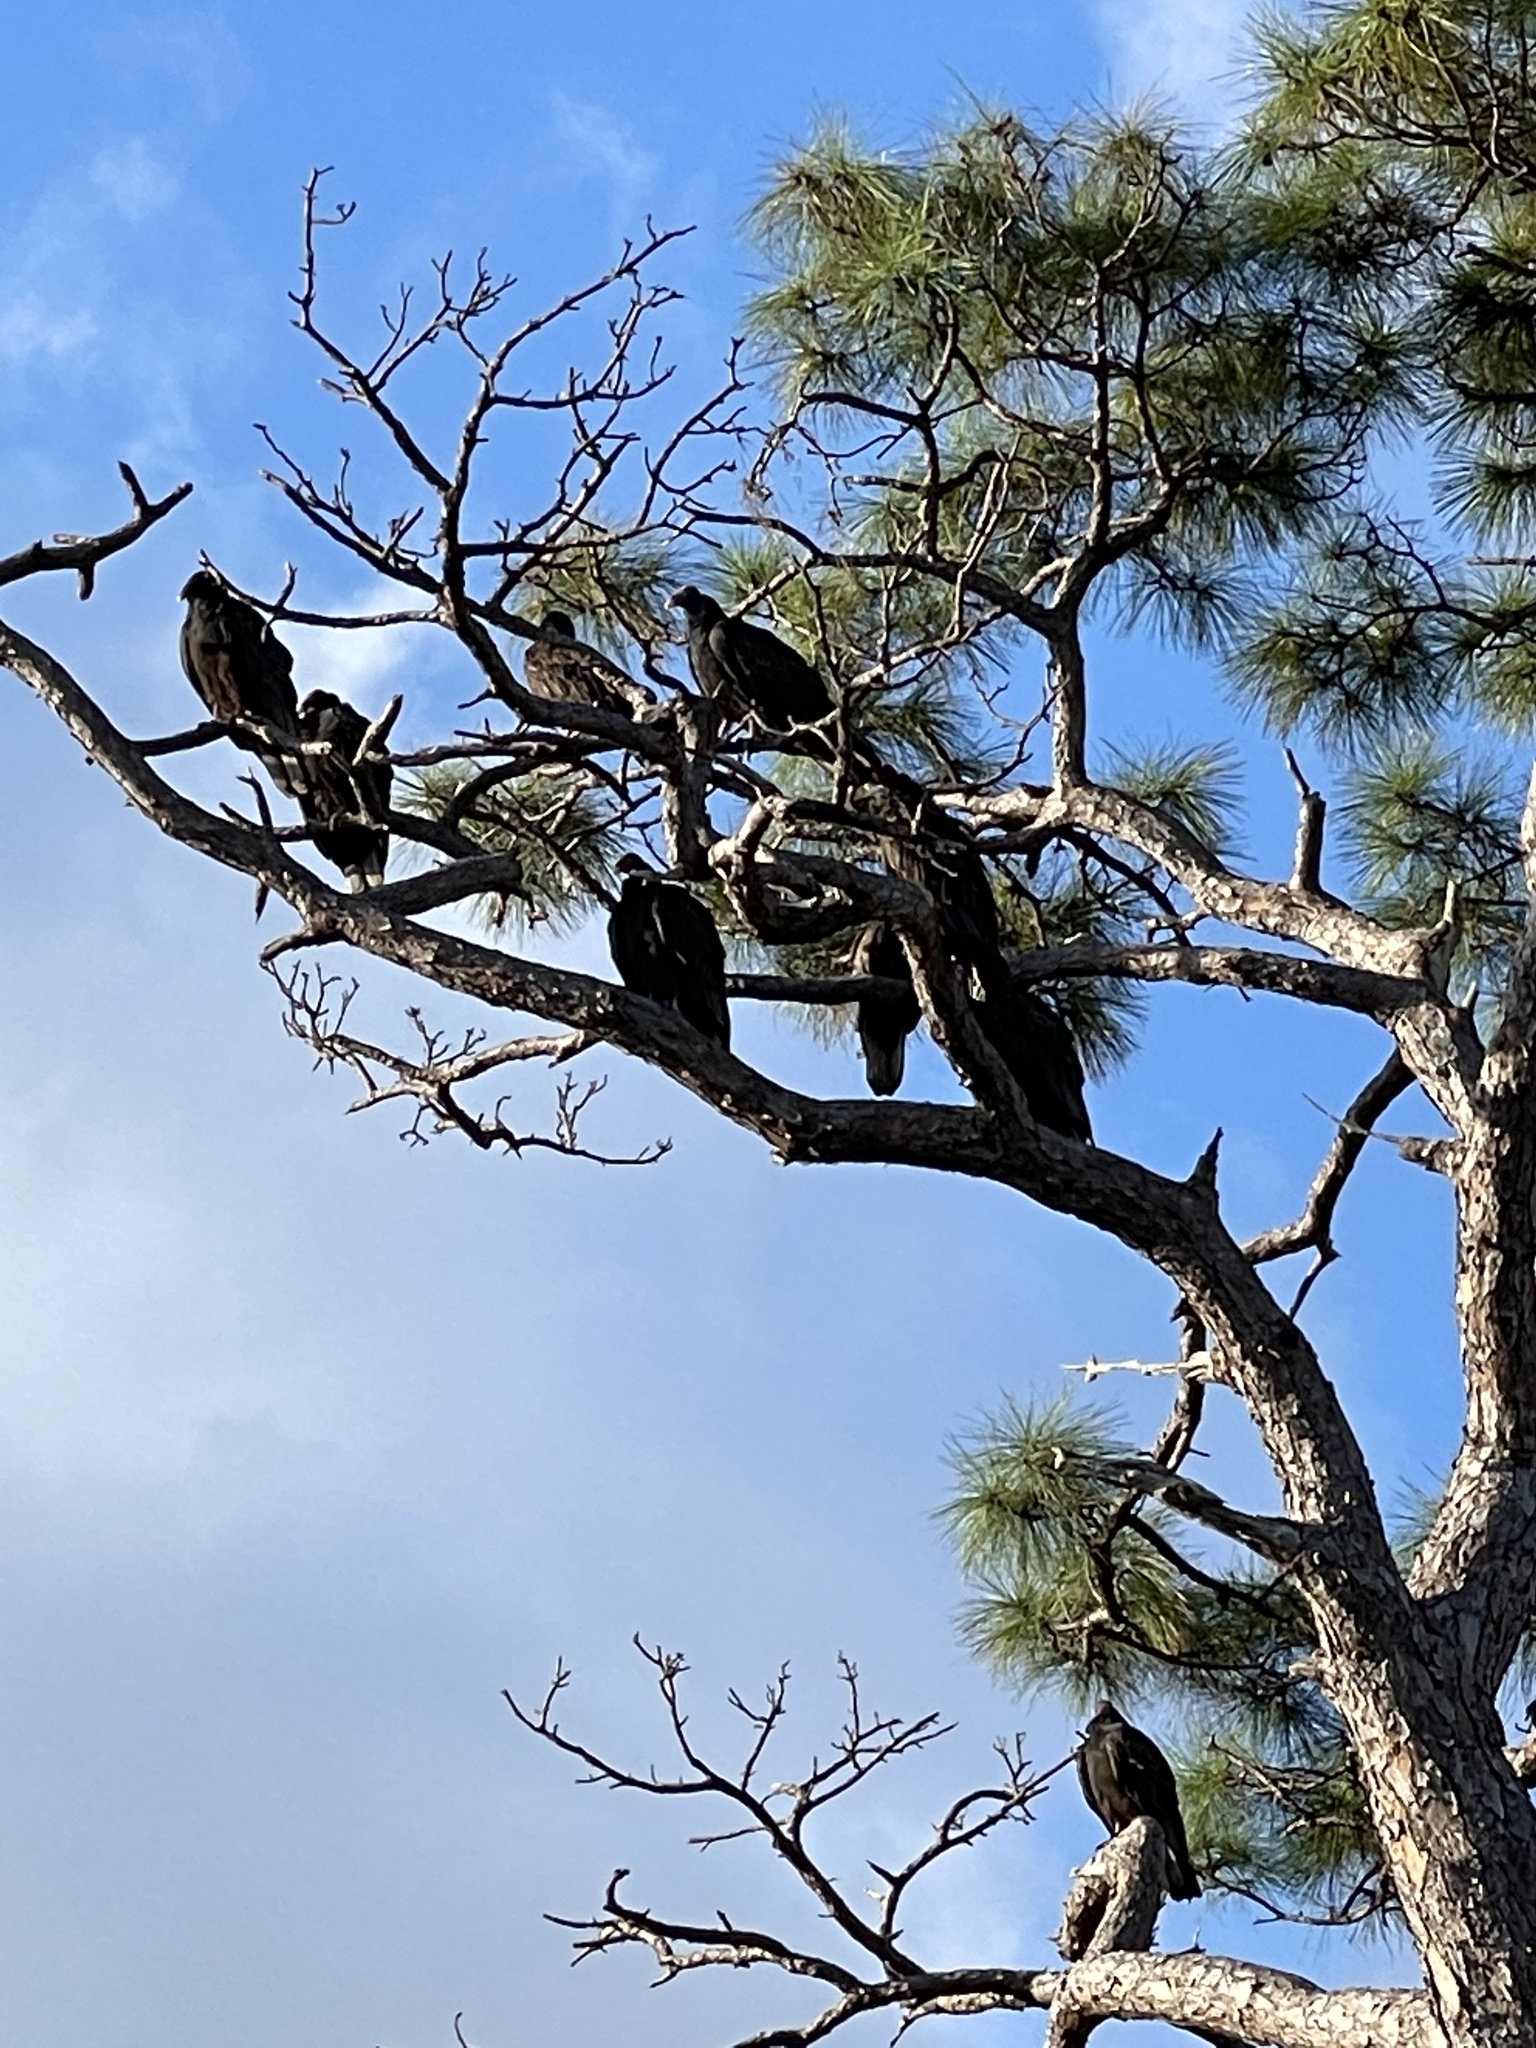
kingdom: Animalia
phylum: Chordata
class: Aves
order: Accipitriformes
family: Cathartidae
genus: Cathartes
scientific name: Cathartes aura
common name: Turkey vulture
